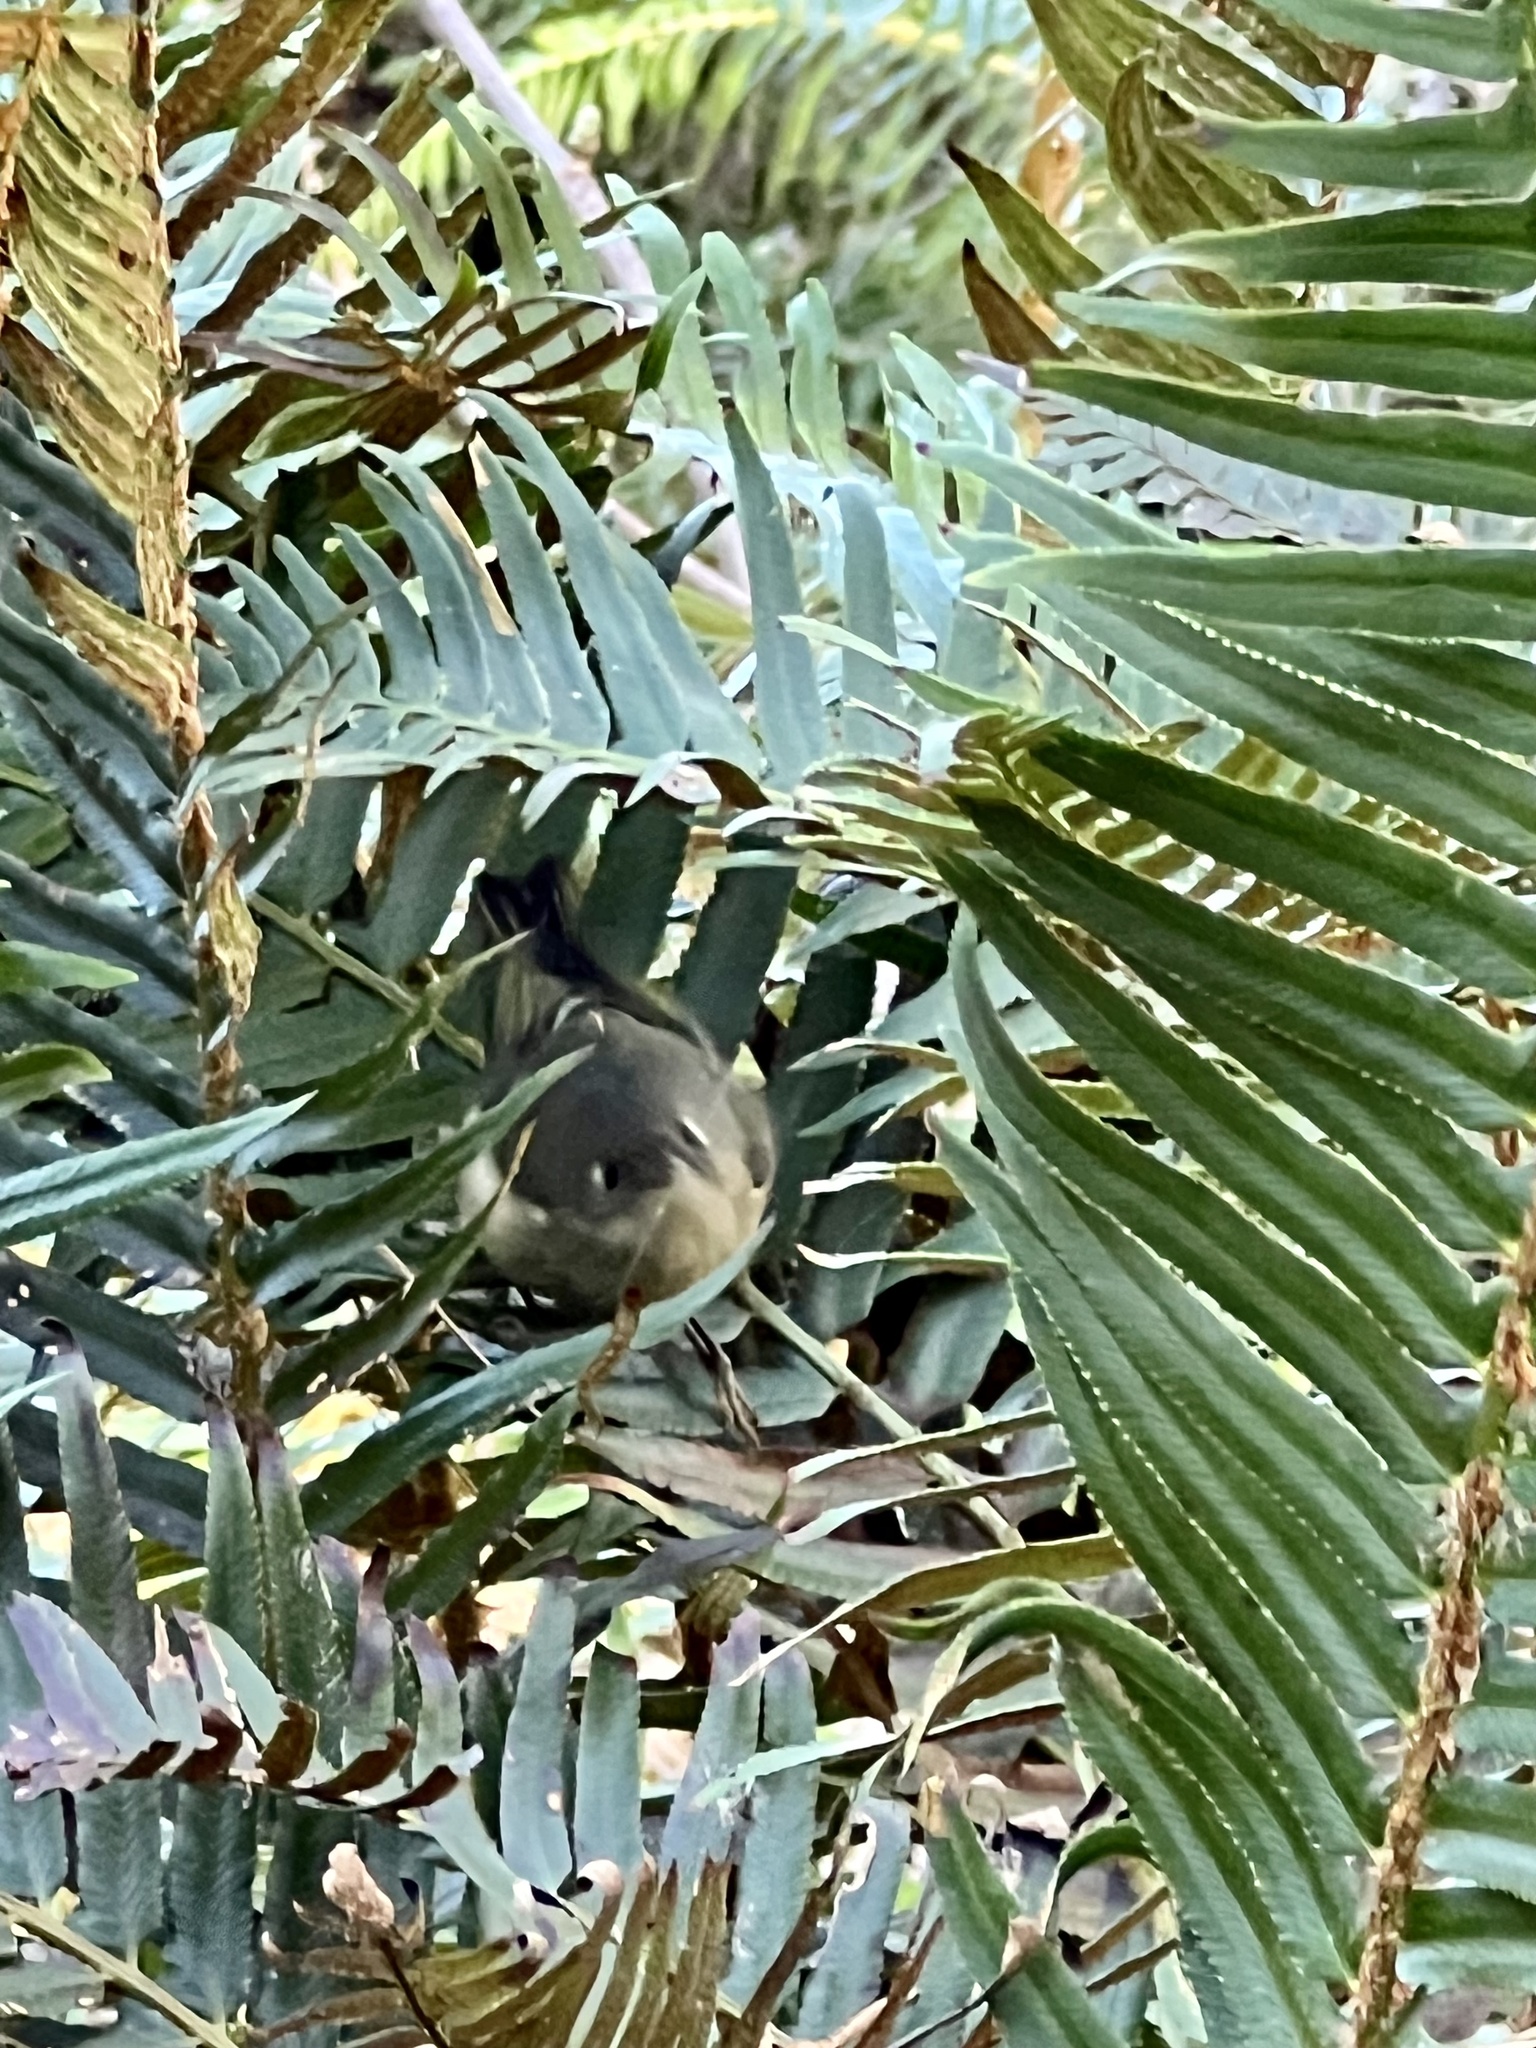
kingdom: Animalia
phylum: Chordata
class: Aves
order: Passeriformes
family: Regulidae
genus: Regulus
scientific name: Regulus calendula
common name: Ruby-crowned kinglet
